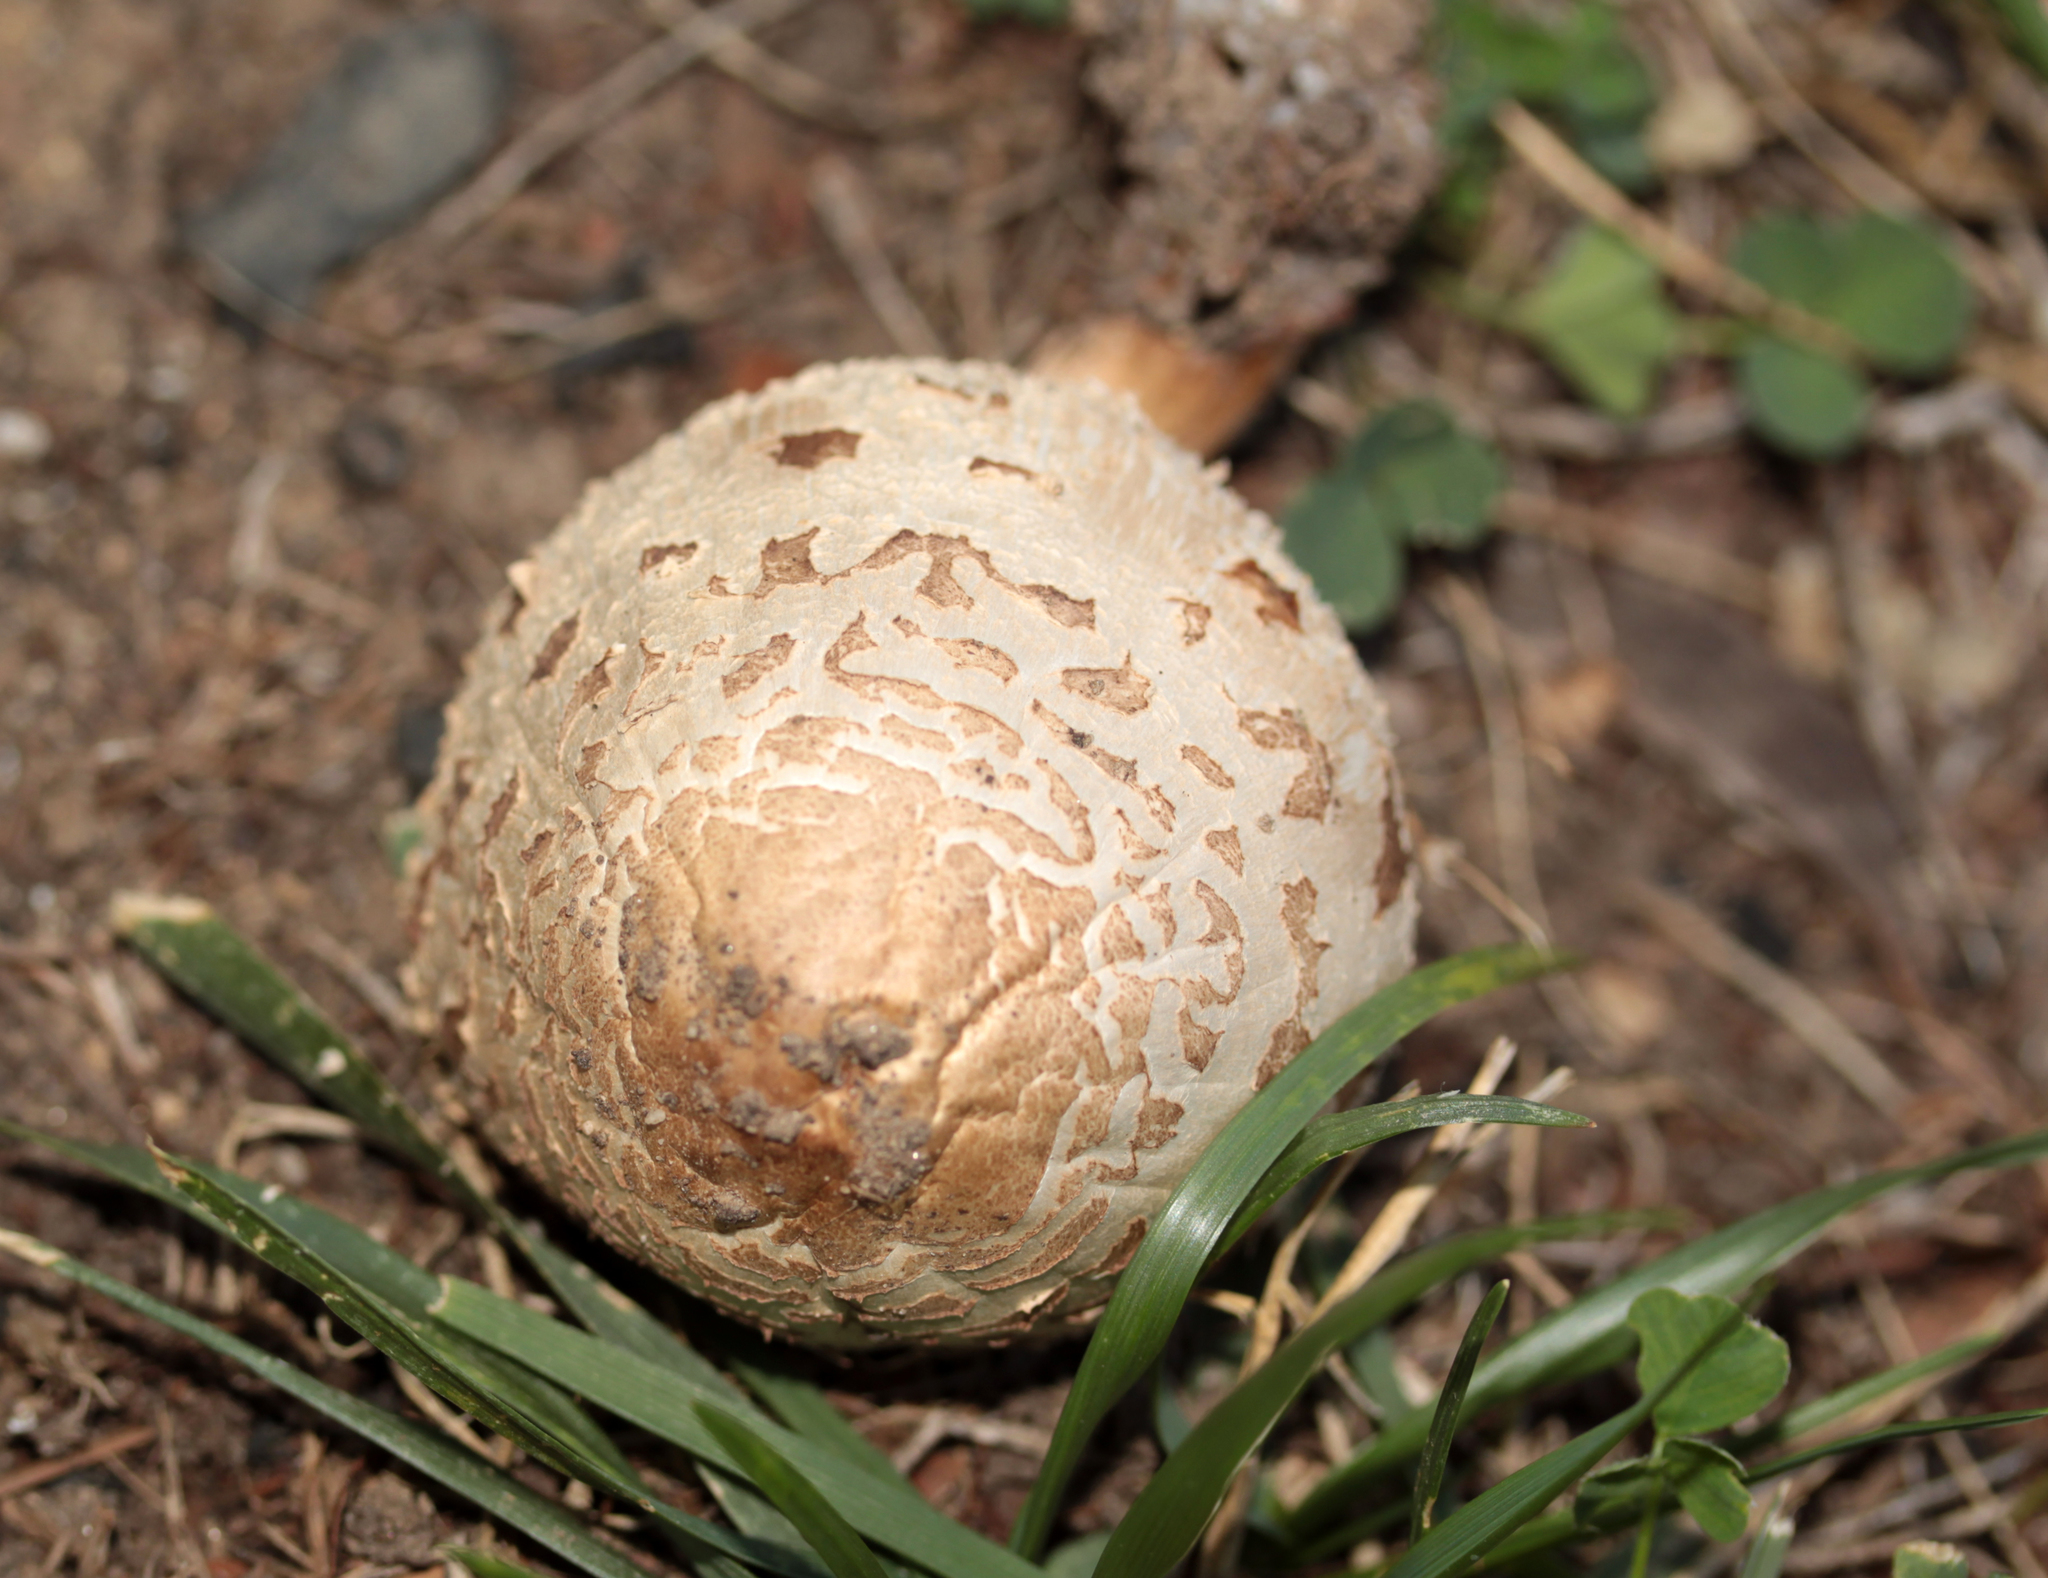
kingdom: Fungi
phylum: Basidiomycota
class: Agaricomycetes
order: Agaricales
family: Agaricaceae
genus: Chlorophyllum
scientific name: Chlorophyllum molybdites
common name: False parasol
